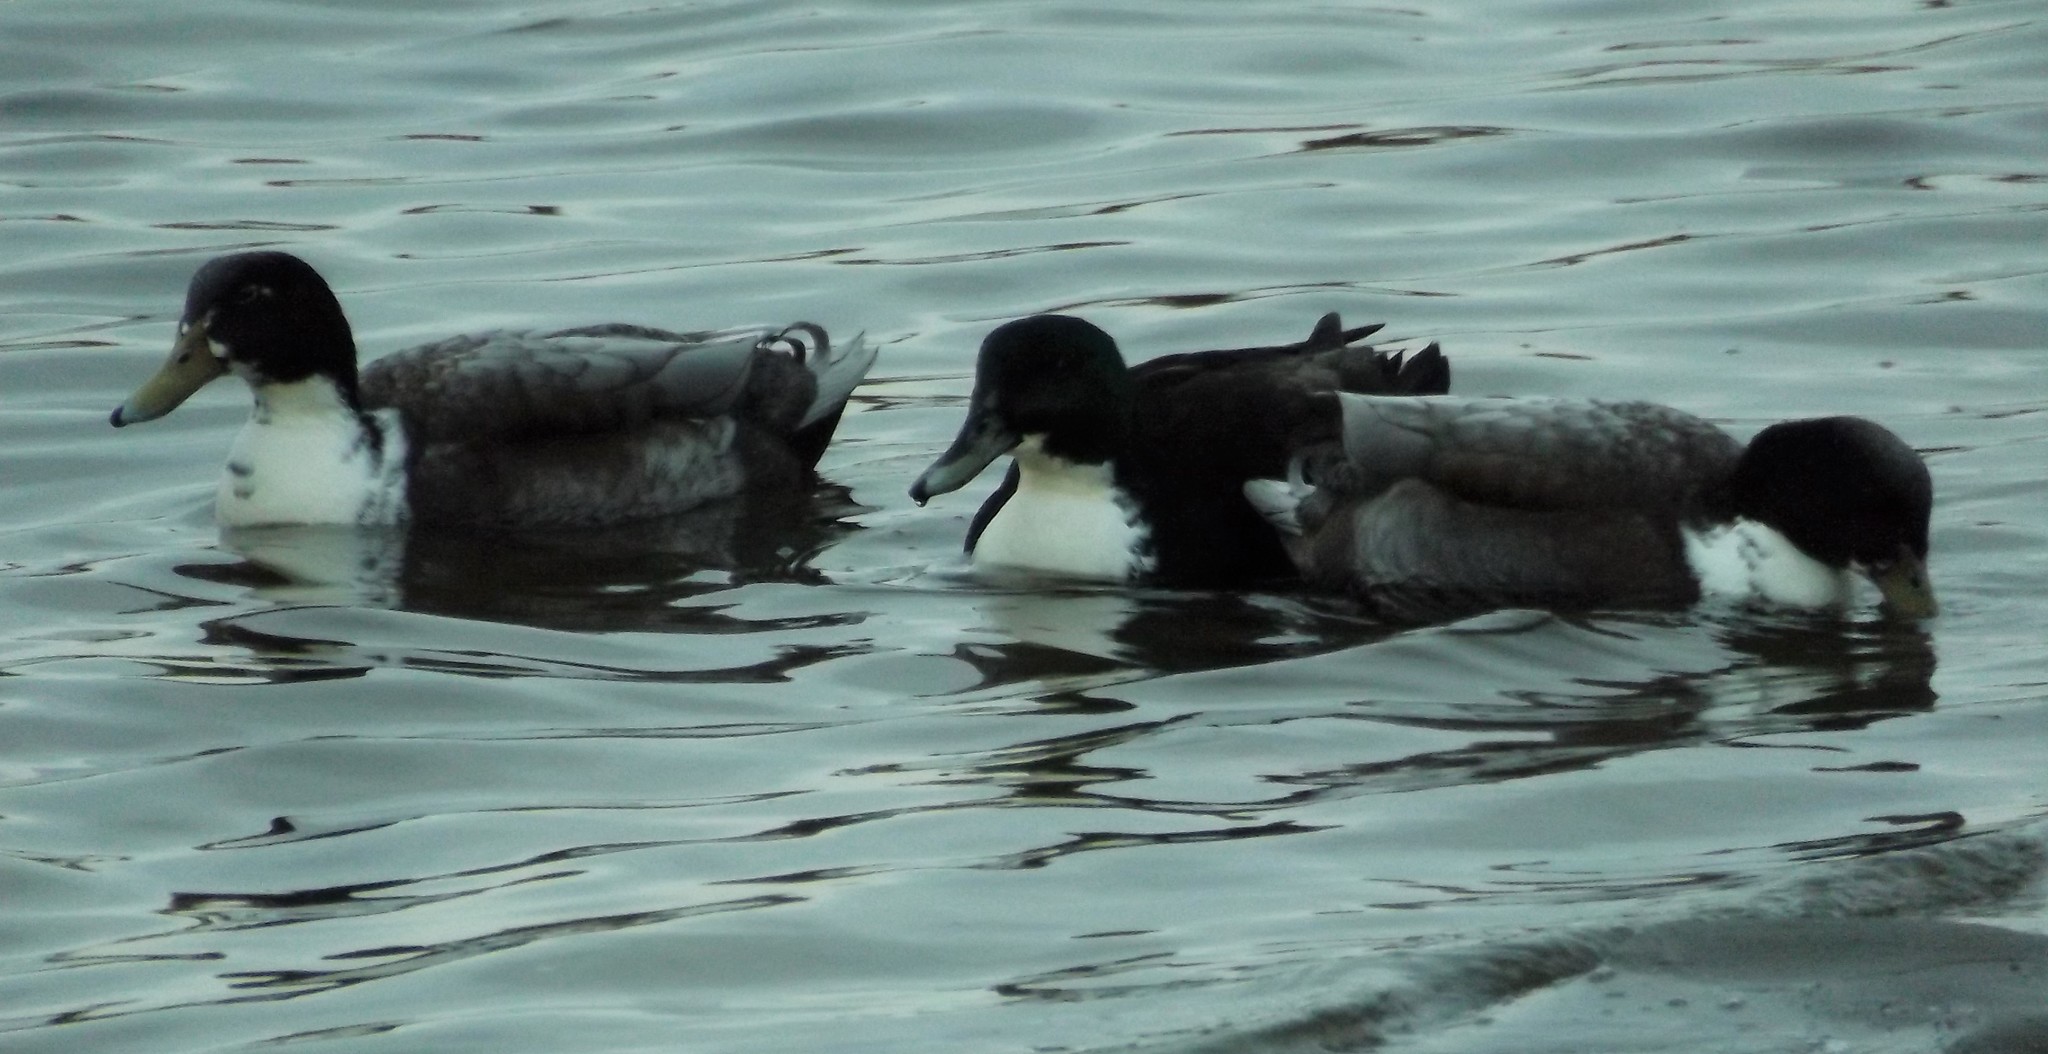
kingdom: Animalia
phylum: Chordata
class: Aves
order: Anseriformes
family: Anatidae
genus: Anas
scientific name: Anas platyrhynchos
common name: Mallard
